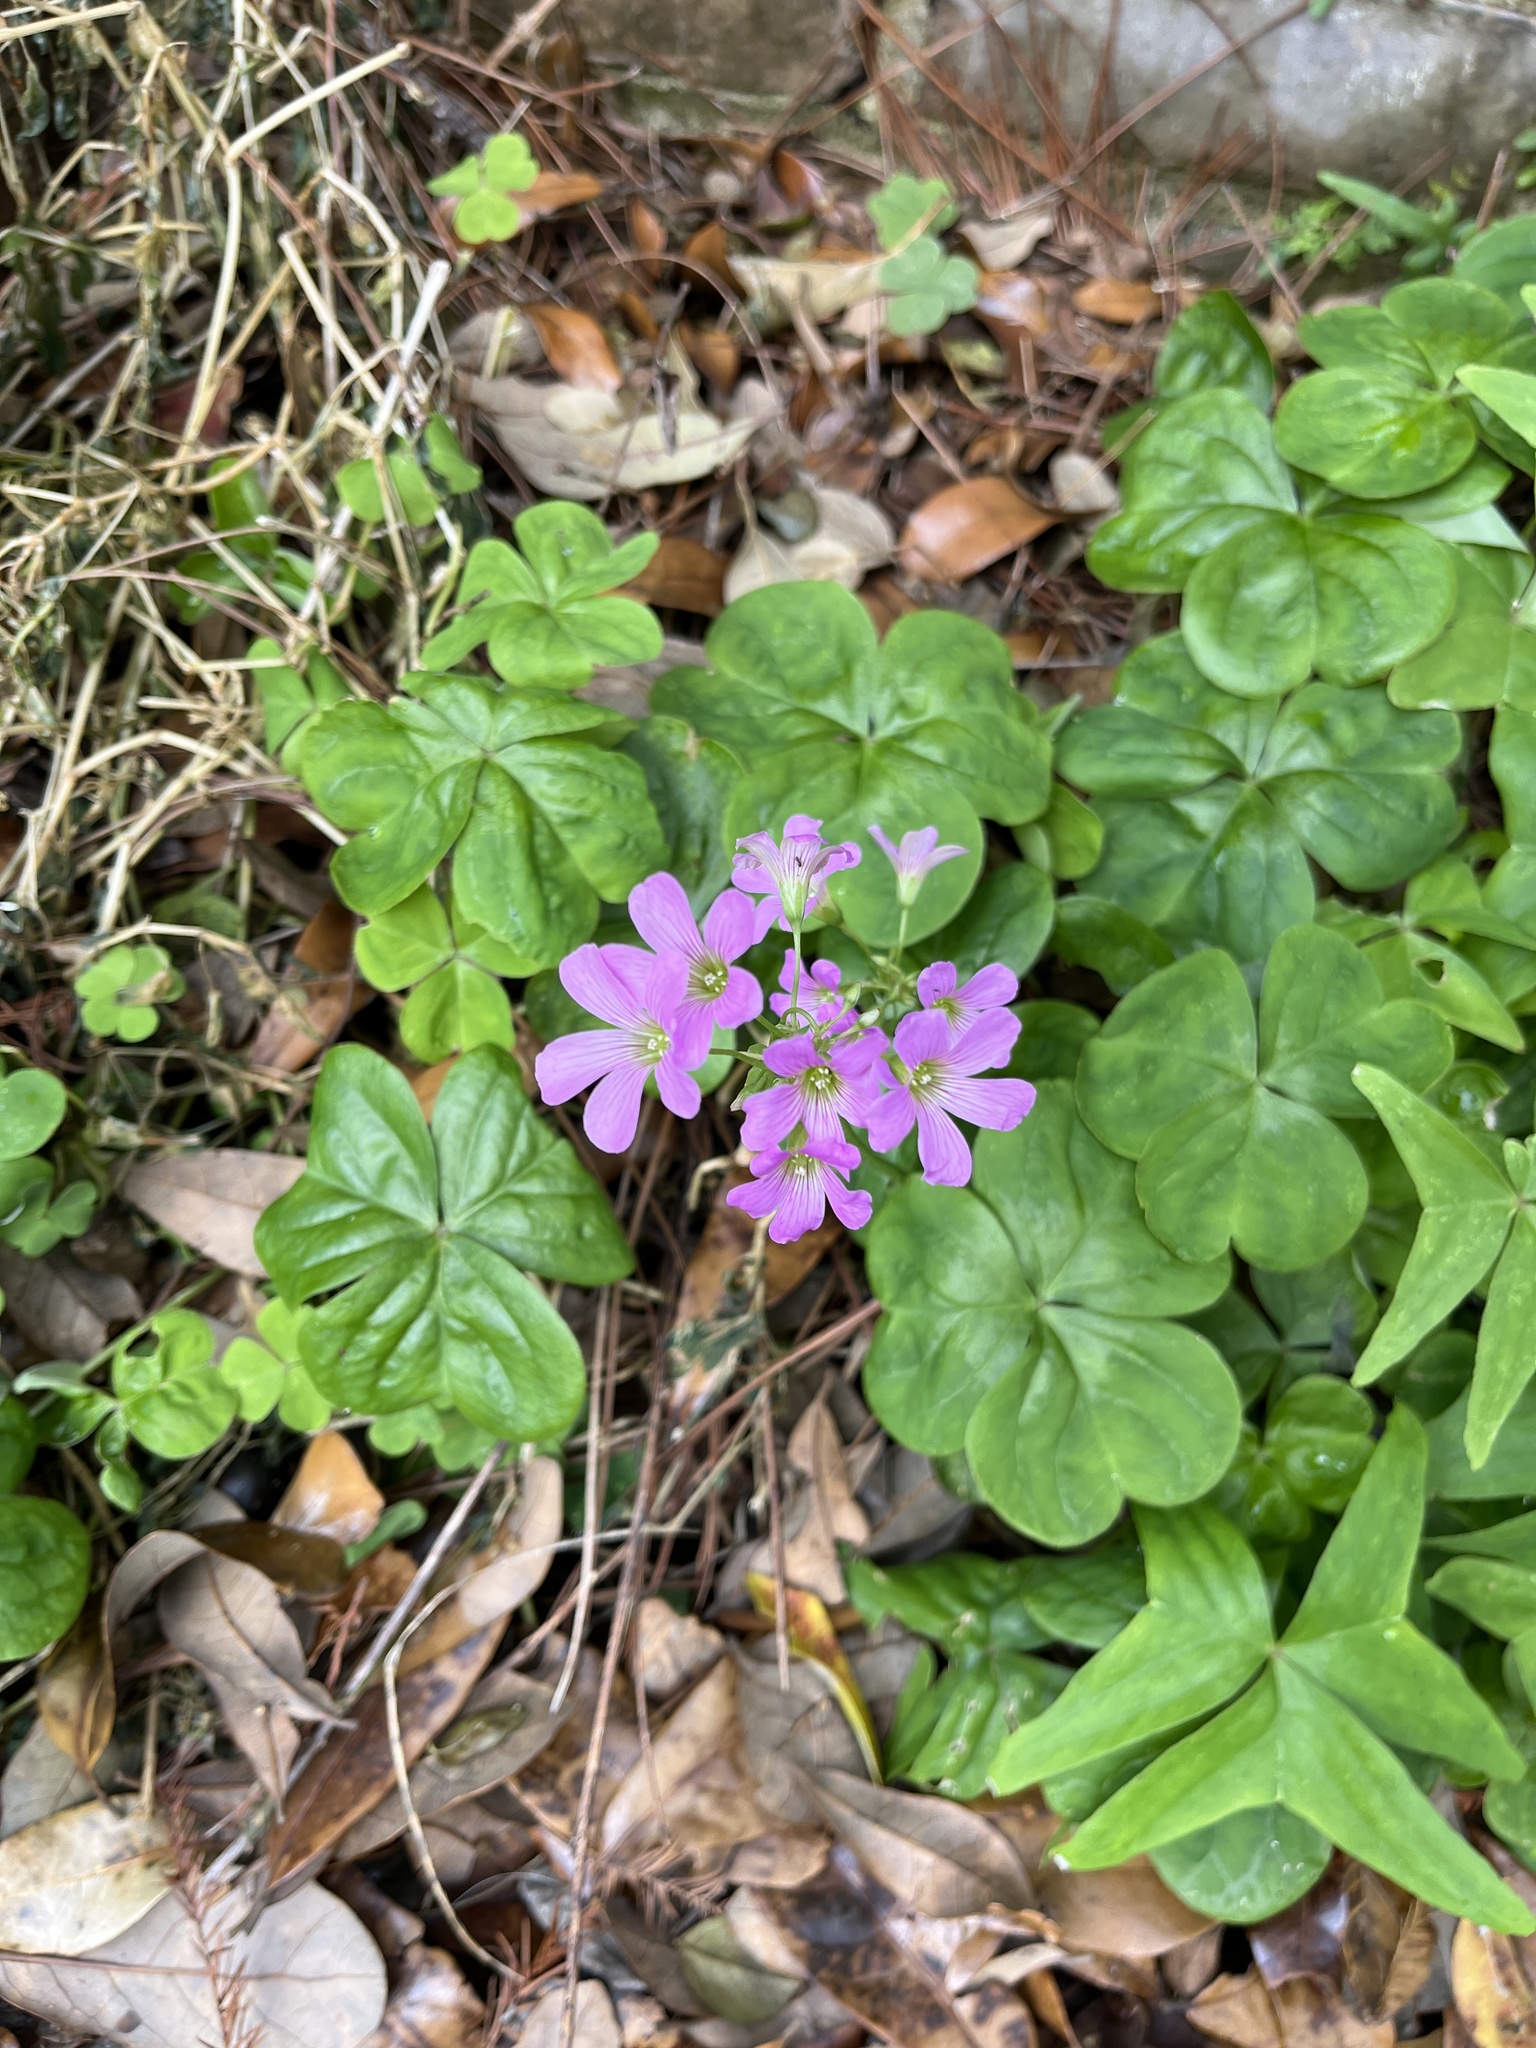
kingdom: Plantae
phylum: Tracheophyta
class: Magnoliopsida
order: Oxalidales
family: Oxalidaceae
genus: Oxalis
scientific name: Oxalis debilis
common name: Large-flowered pink-sorrel
